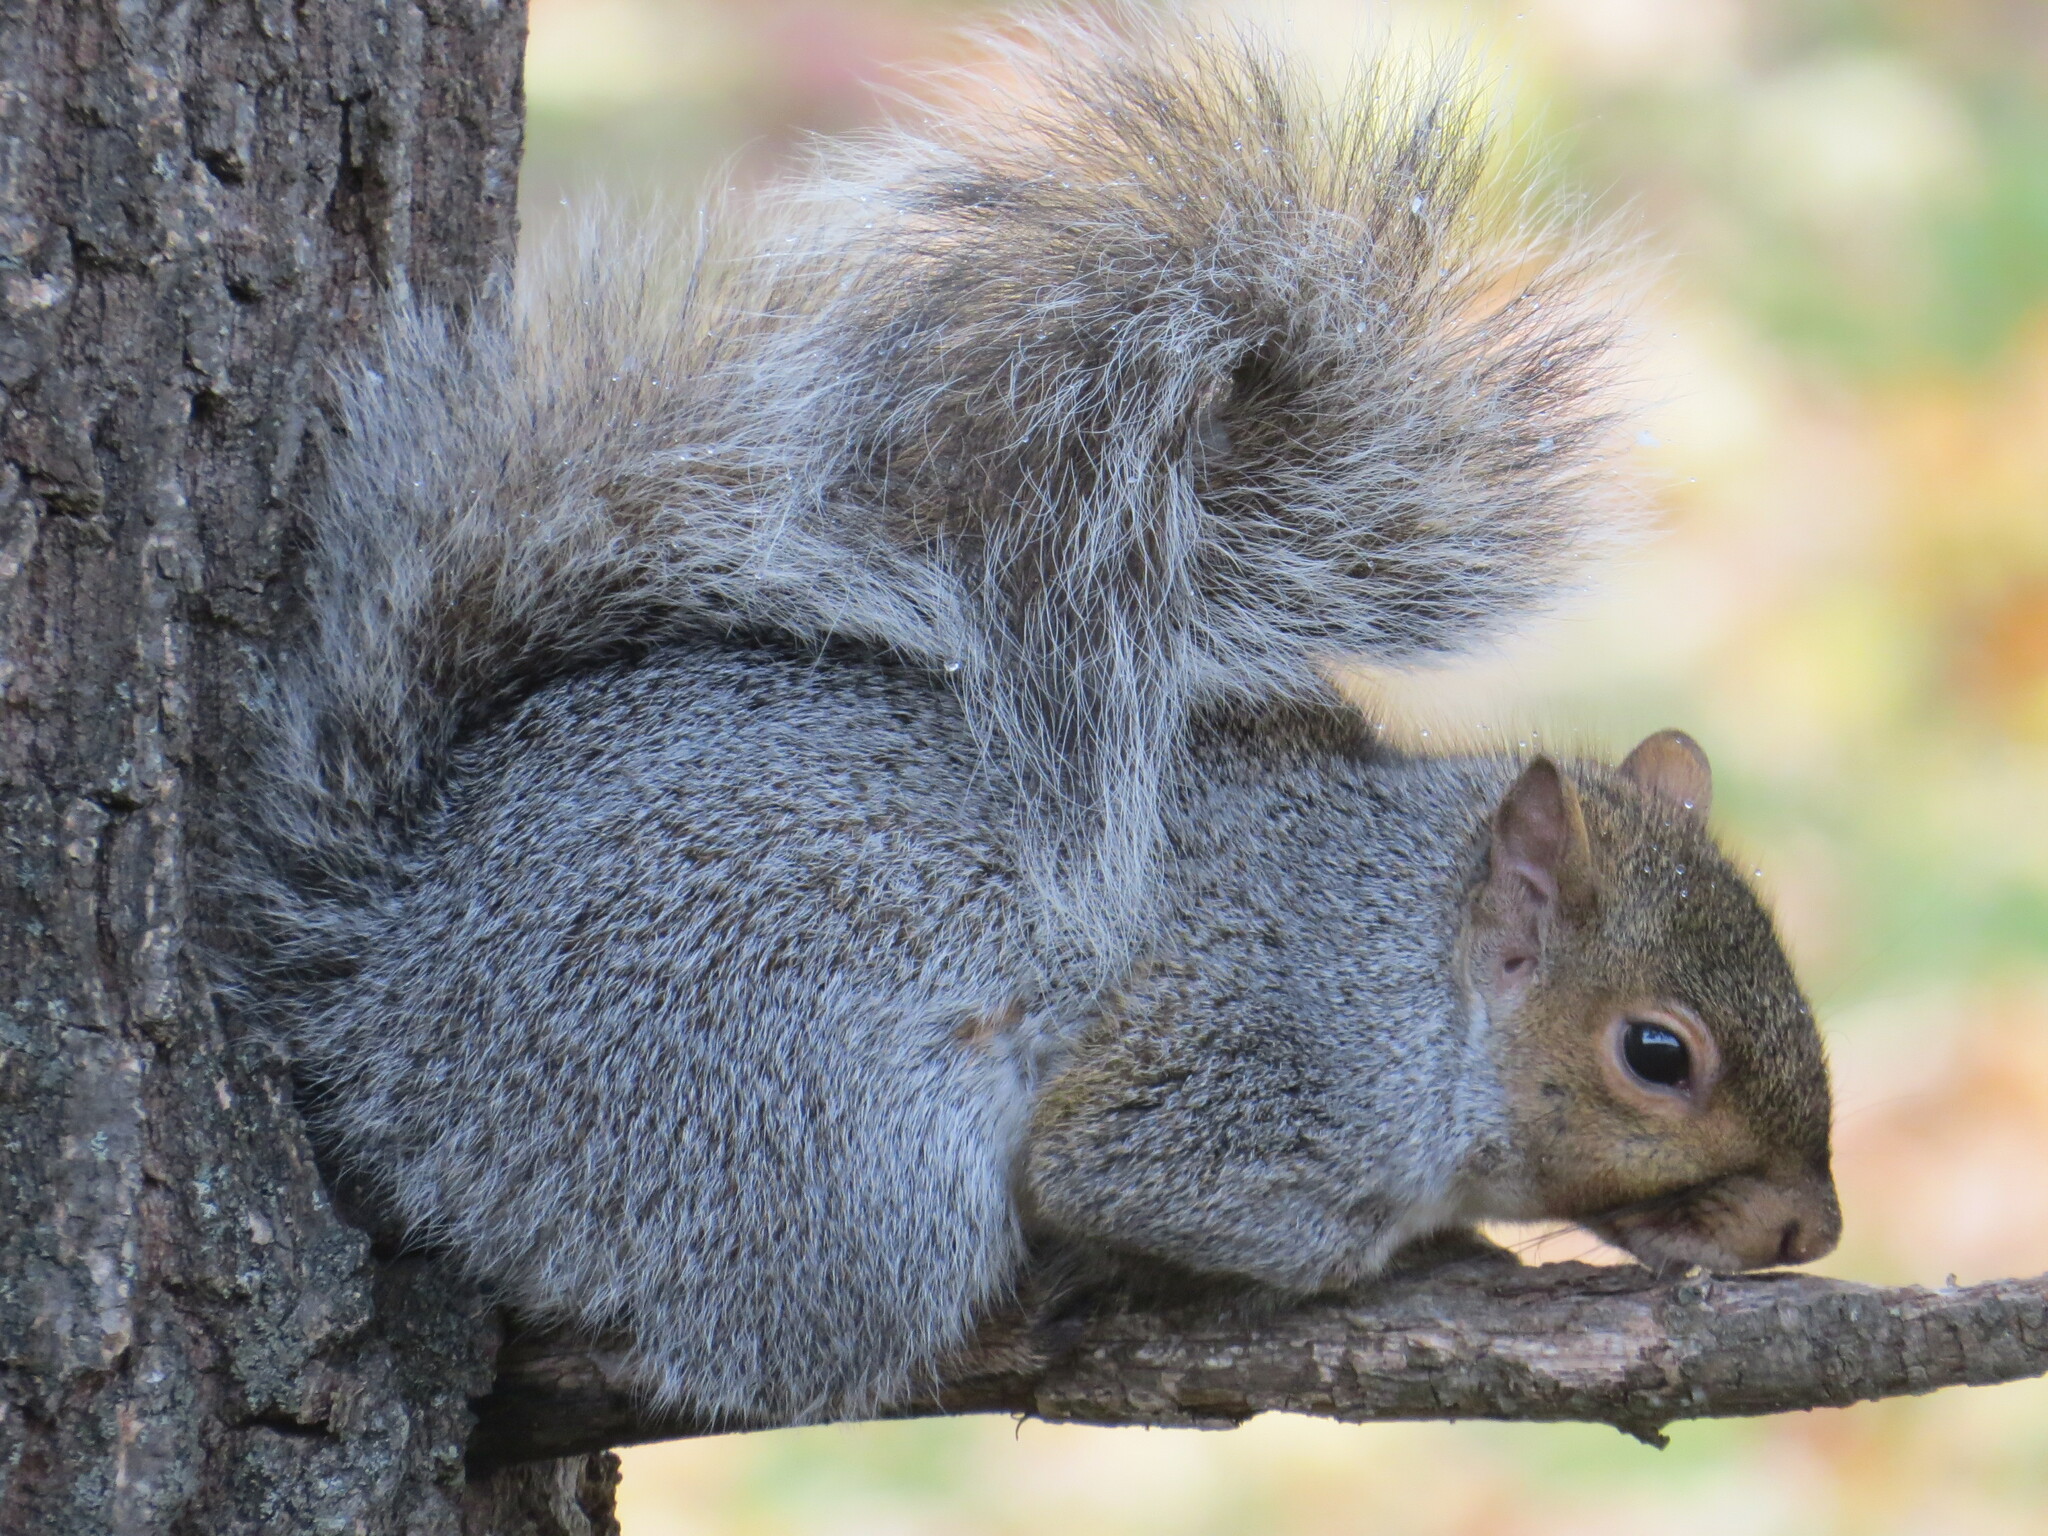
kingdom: Animalia
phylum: Chordata
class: Mammalia
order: Rodentia
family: Sciuridae
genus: Sciurus
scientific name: Sciurus carolinensis
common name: Eastern gray squirrel
